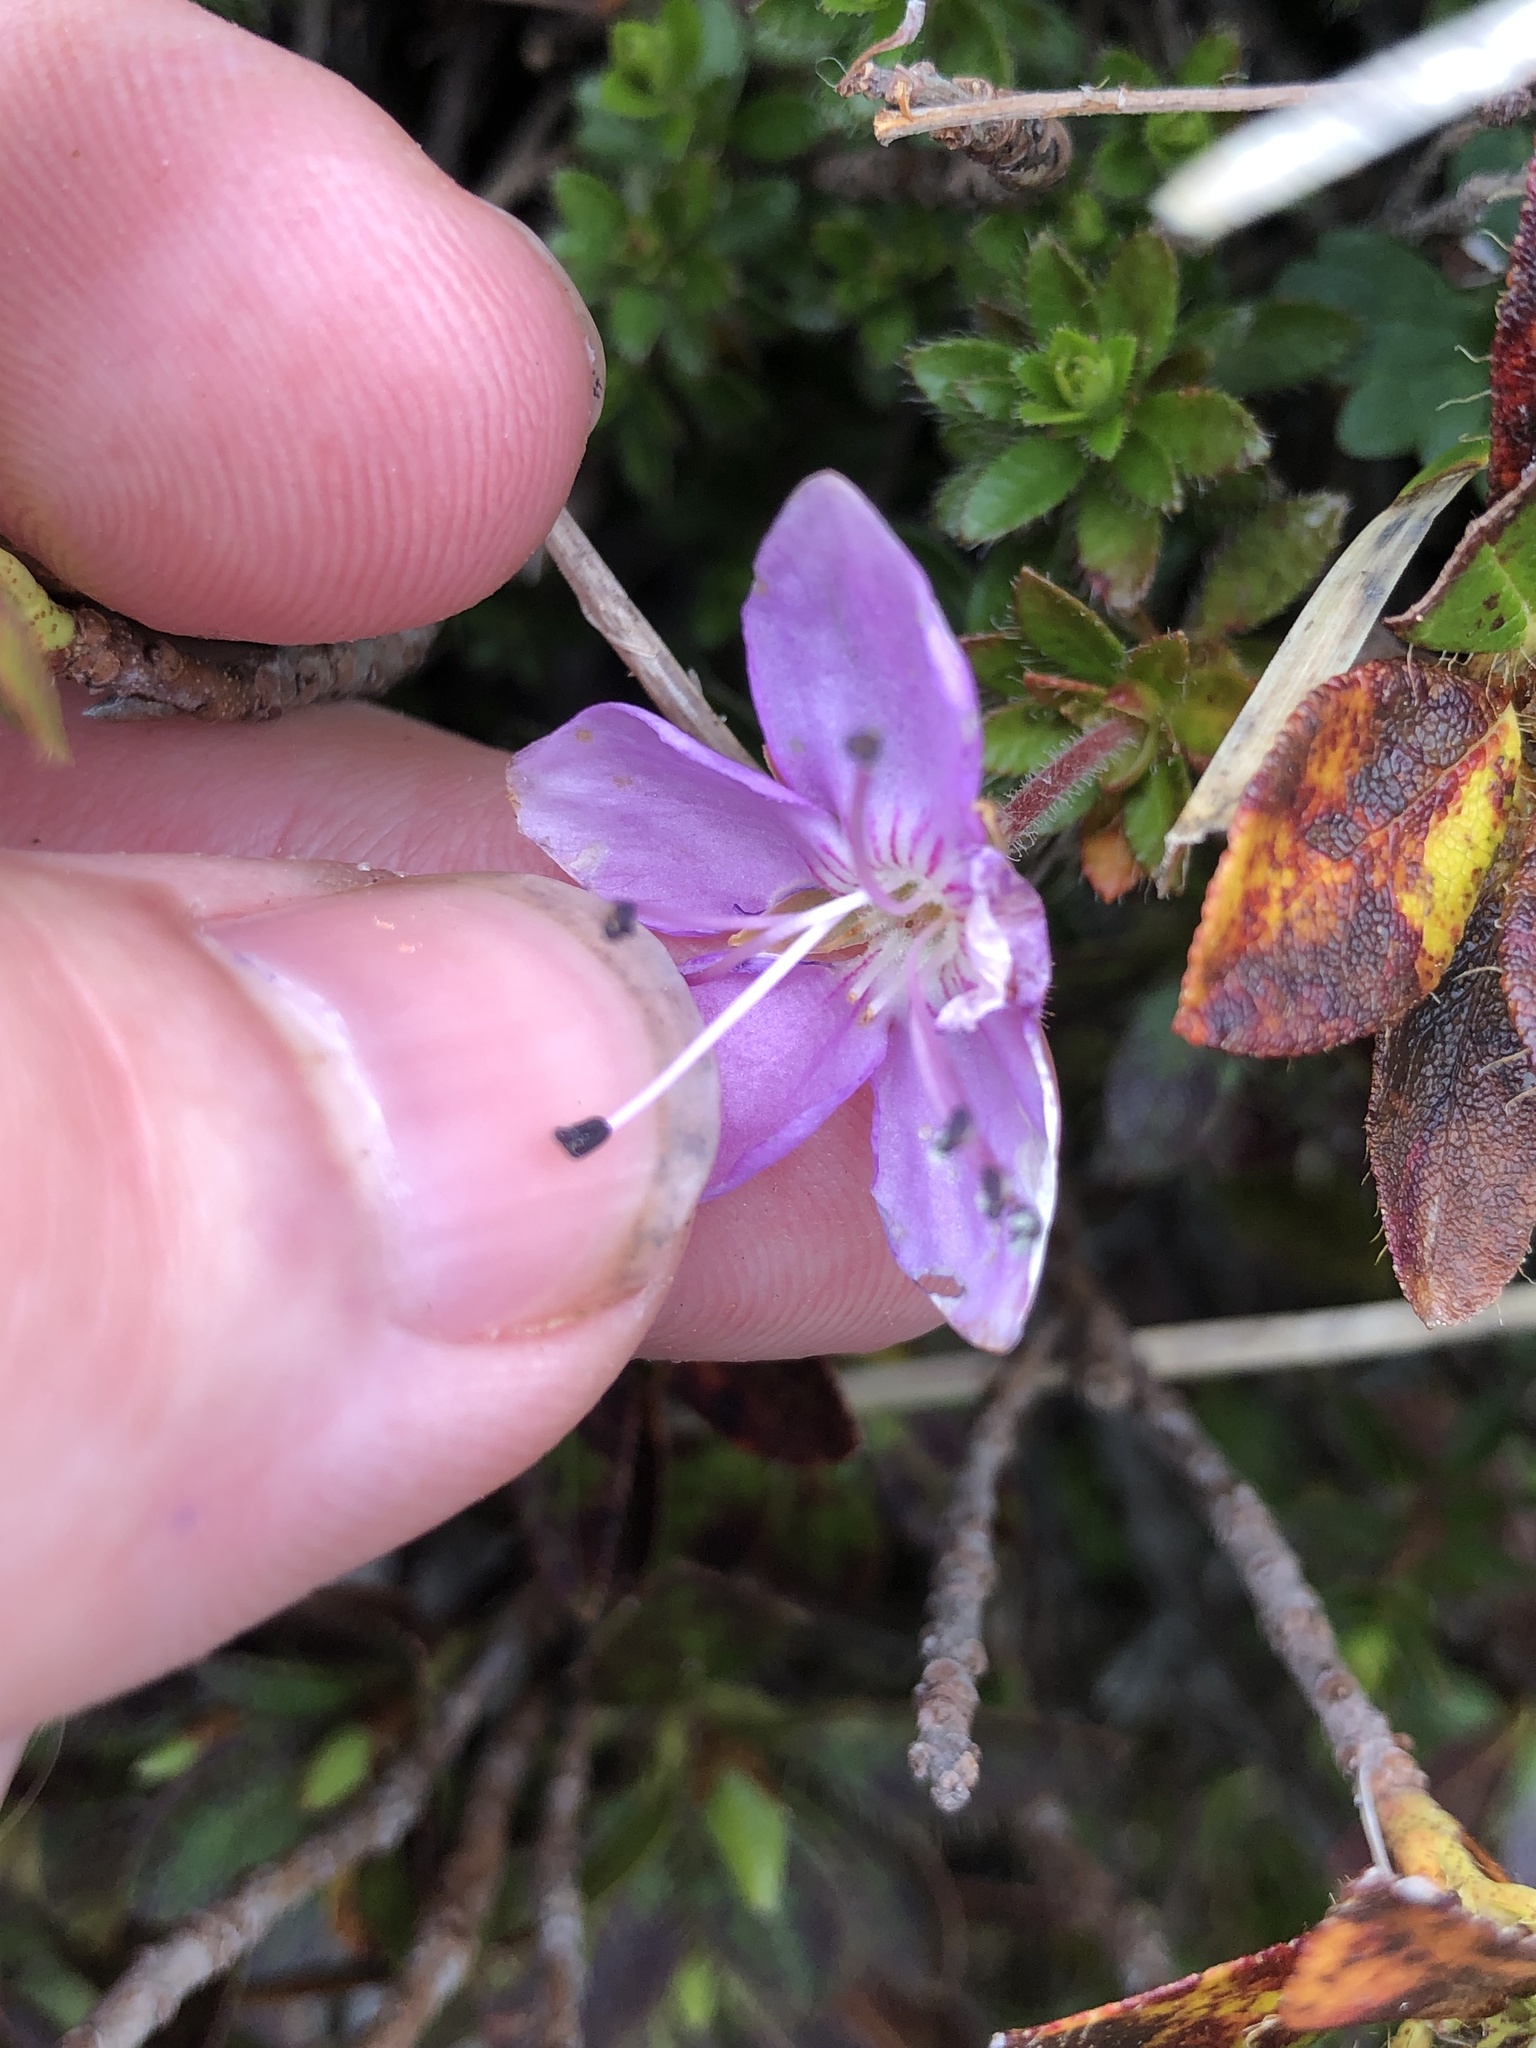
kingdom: Plantae
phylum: Tracheophyta
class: Magnoliopsida
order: Ericales
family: Ericaceae
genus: Rhodothamnus
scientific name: Rhodothamnus chamaecistus
